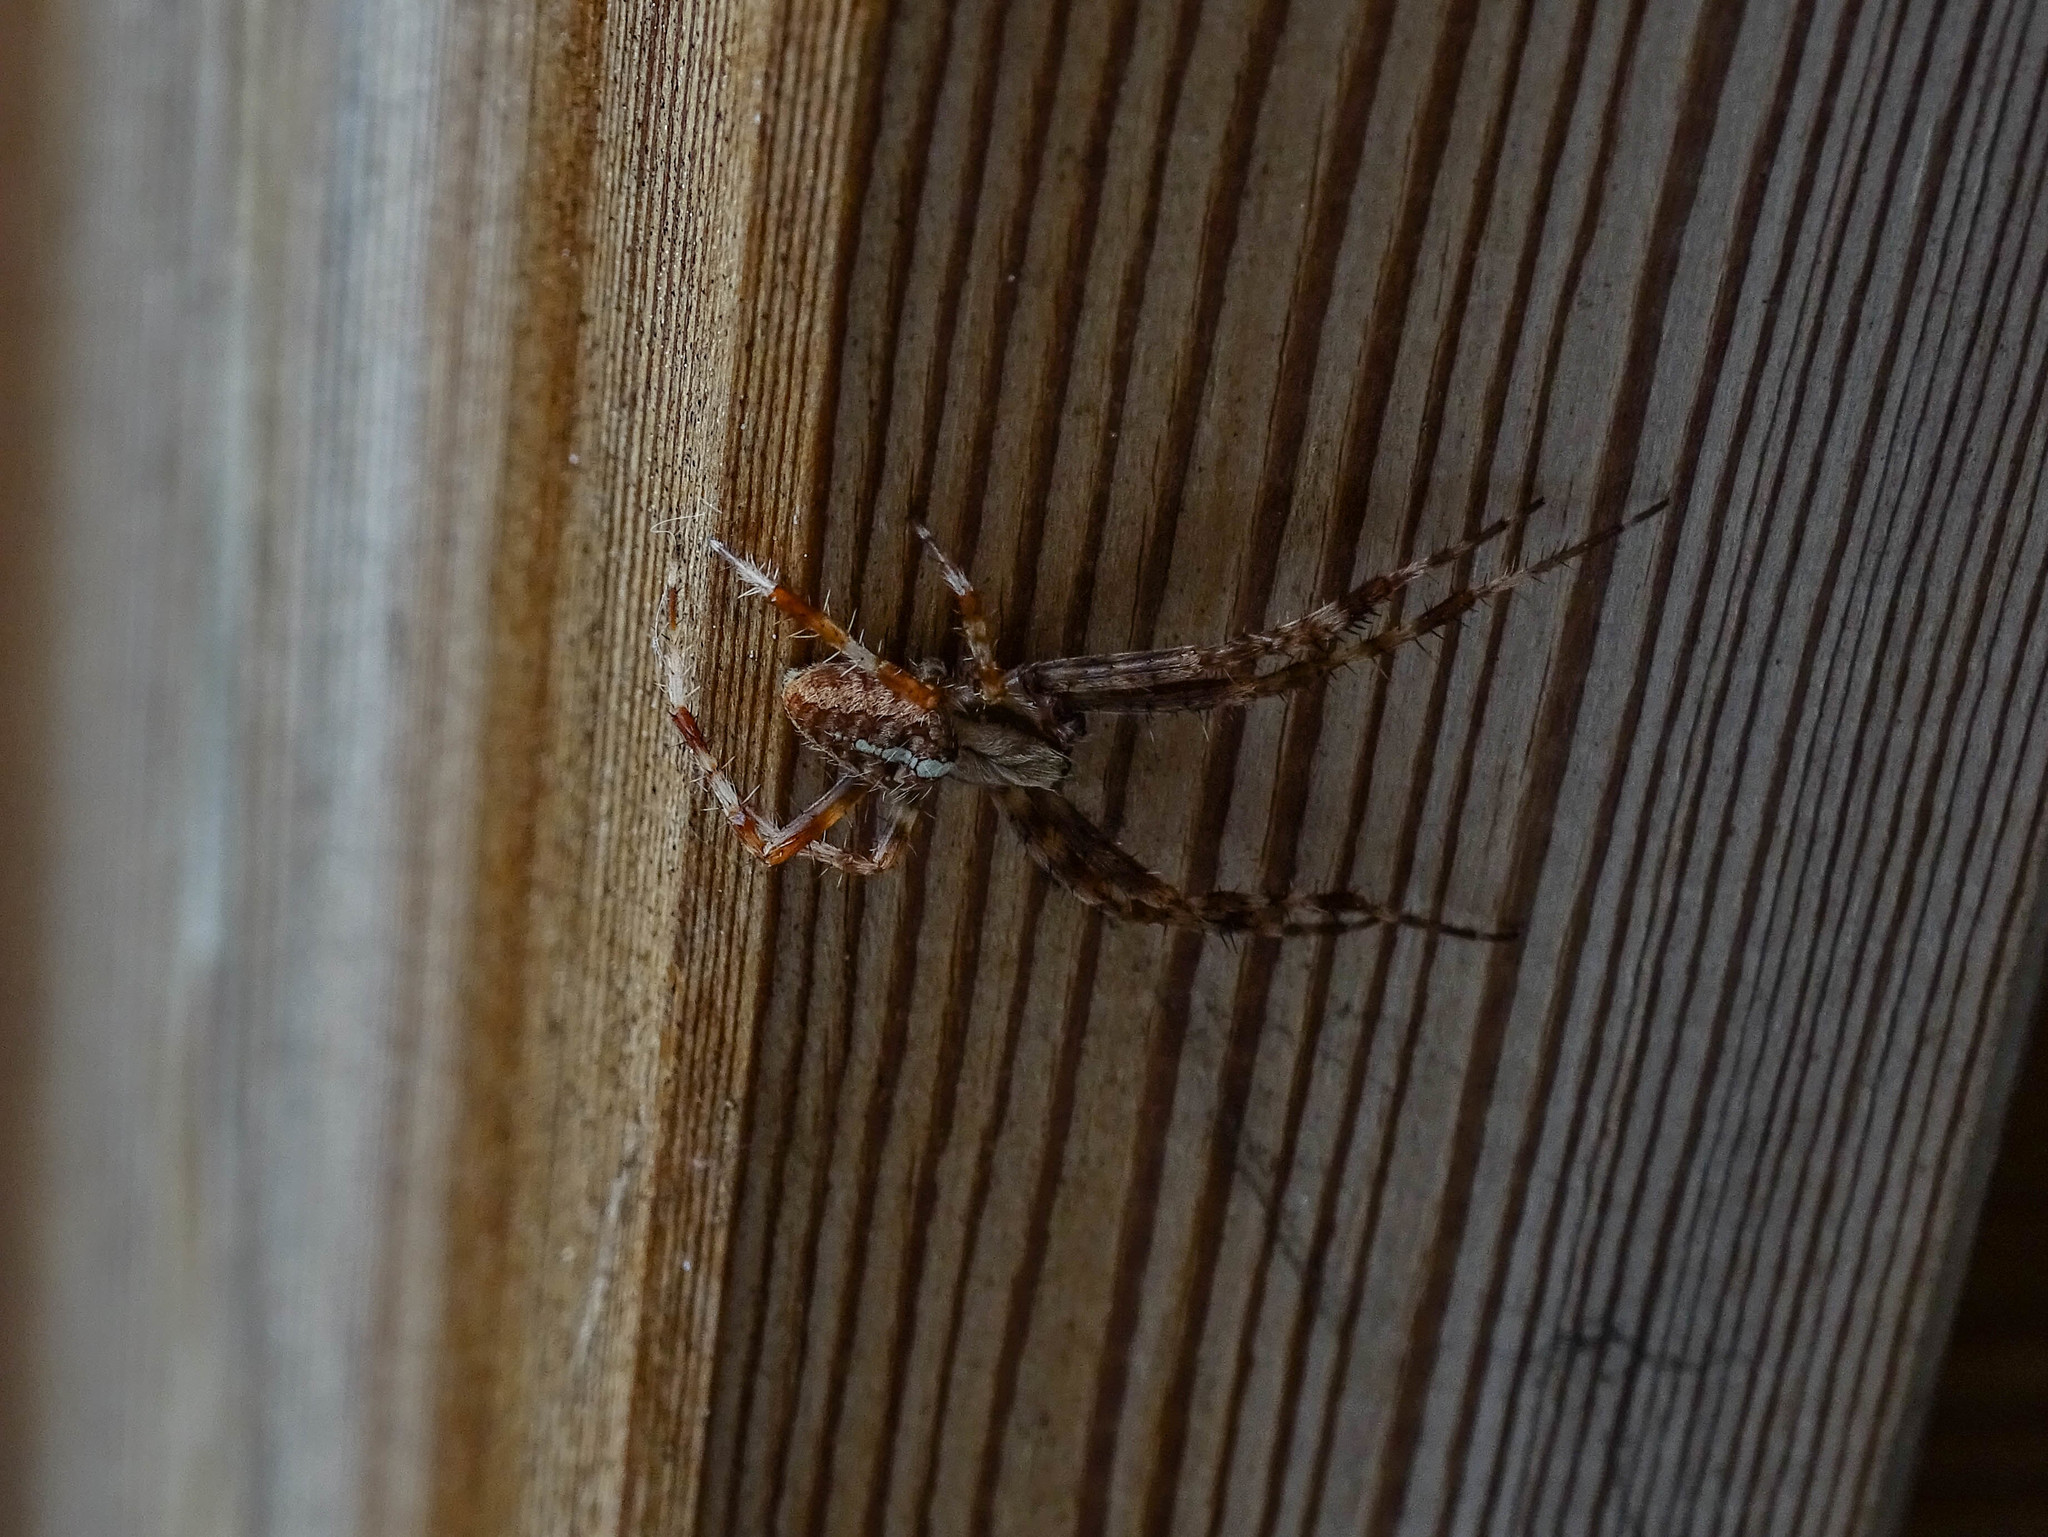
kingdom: Animalia
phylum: Arthropoda
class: Arachnida
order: Araneae
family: Araneidae
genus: Araneus
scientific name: Araneus diadematus
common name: Cross orbweaver
